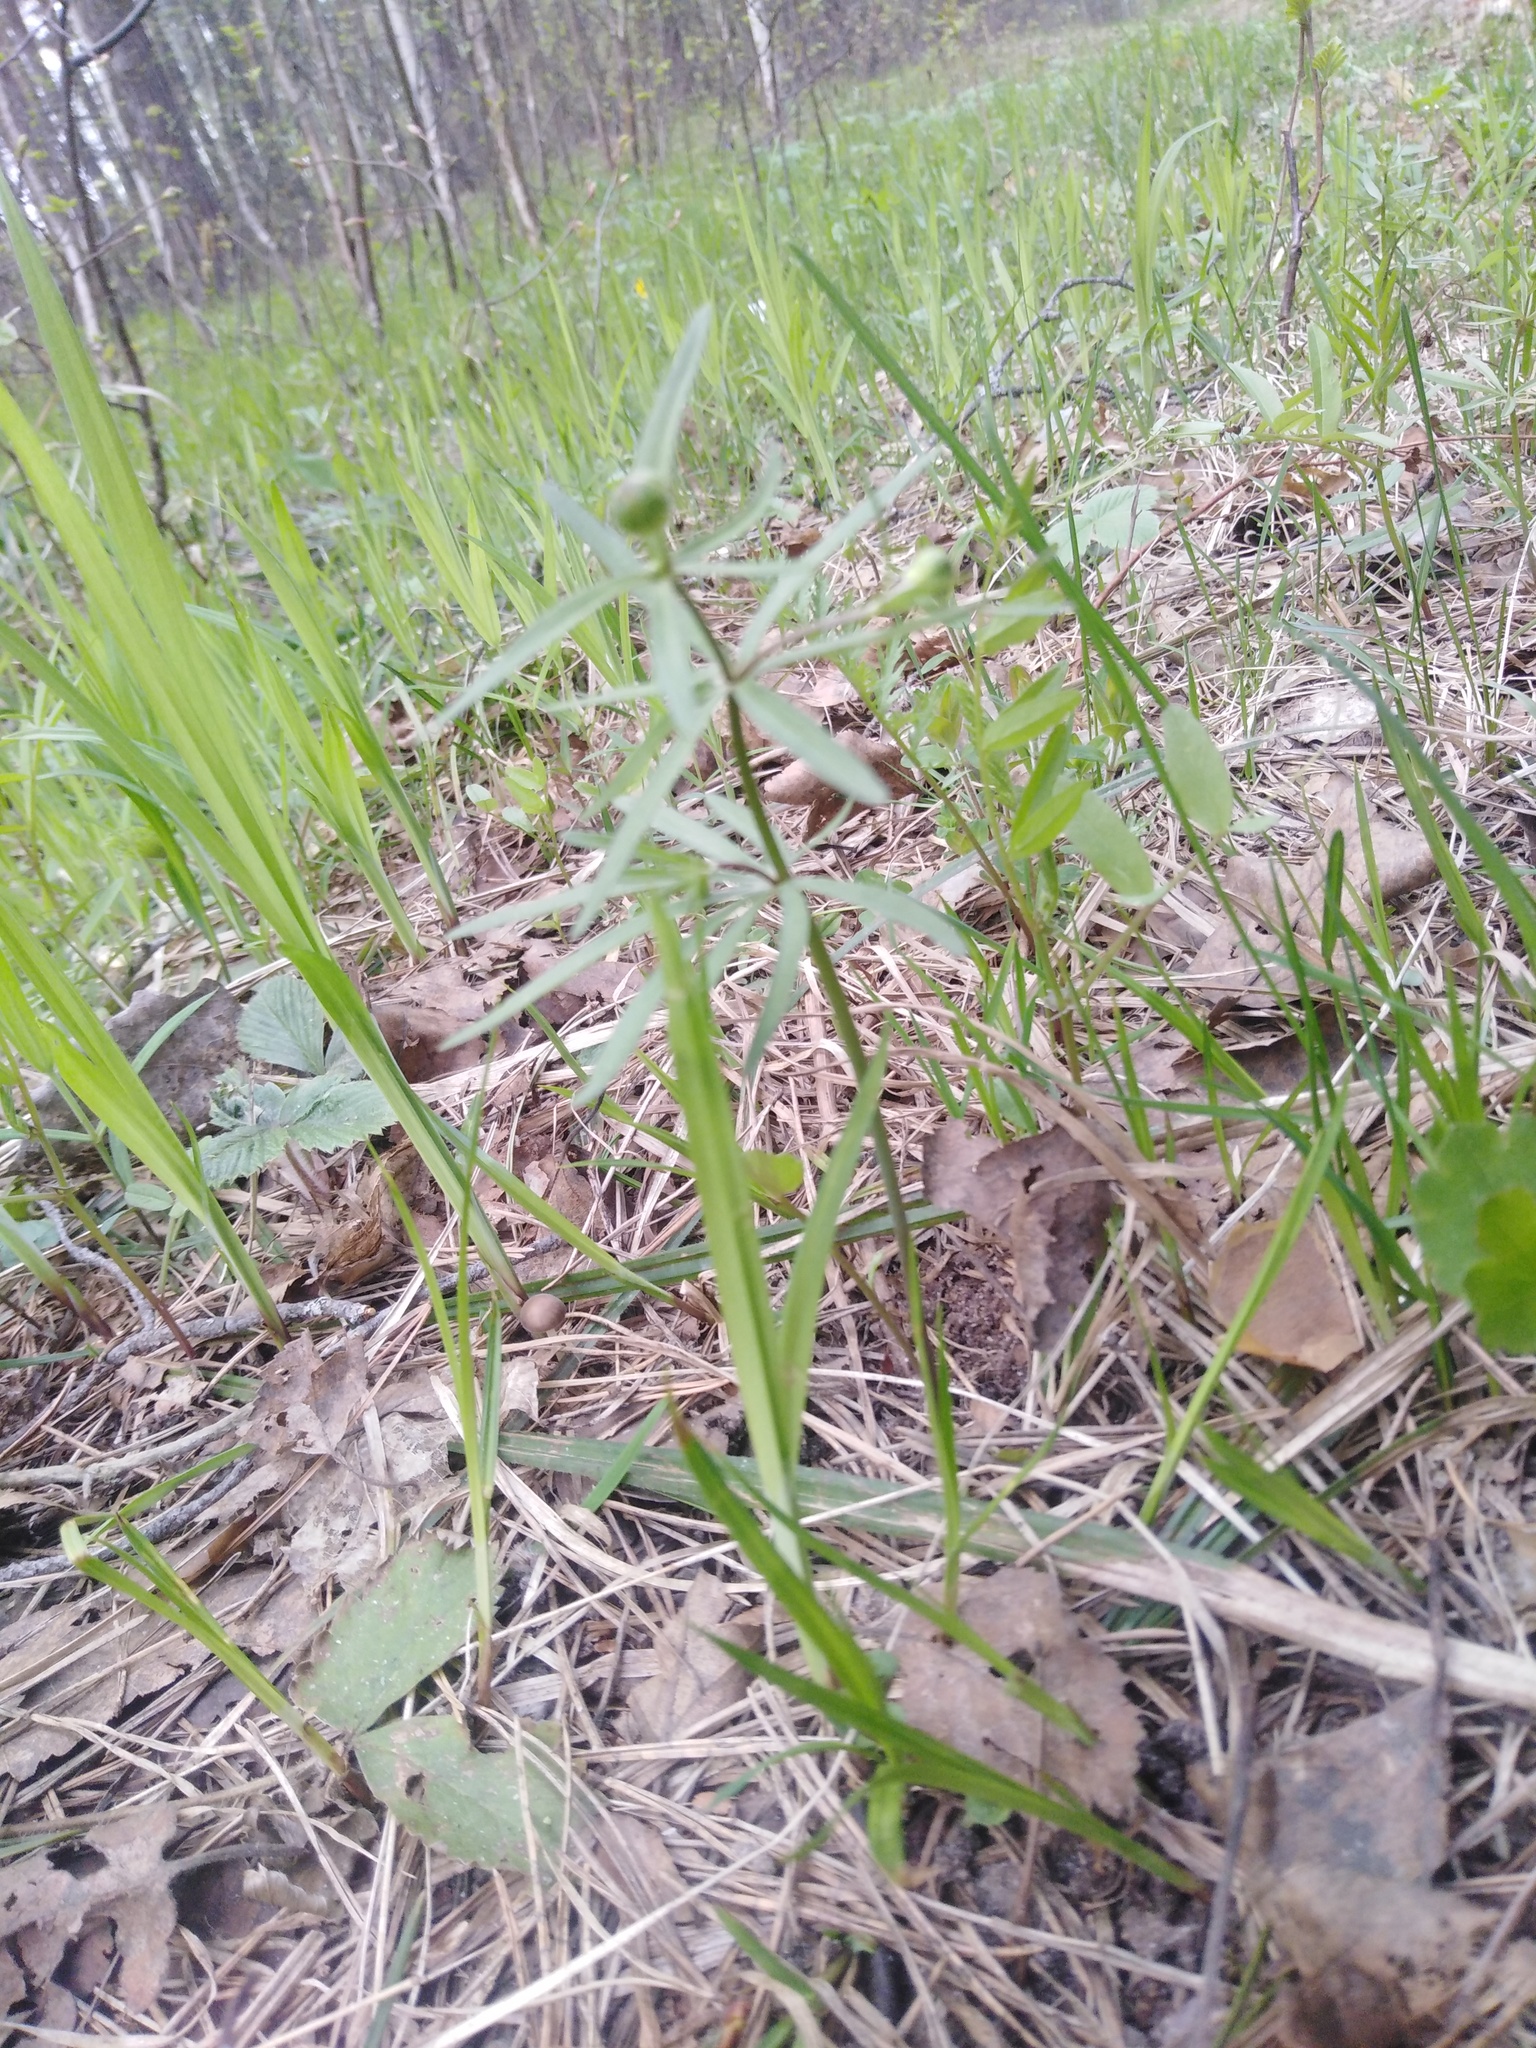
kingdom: Plantae
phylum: Tracheophyta
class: Magnoliopsida
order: Ranunculales
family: Ranunculaceae
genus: Ranunculus
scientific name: Ranunculus auricomus
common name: Goldilocks buttercup
